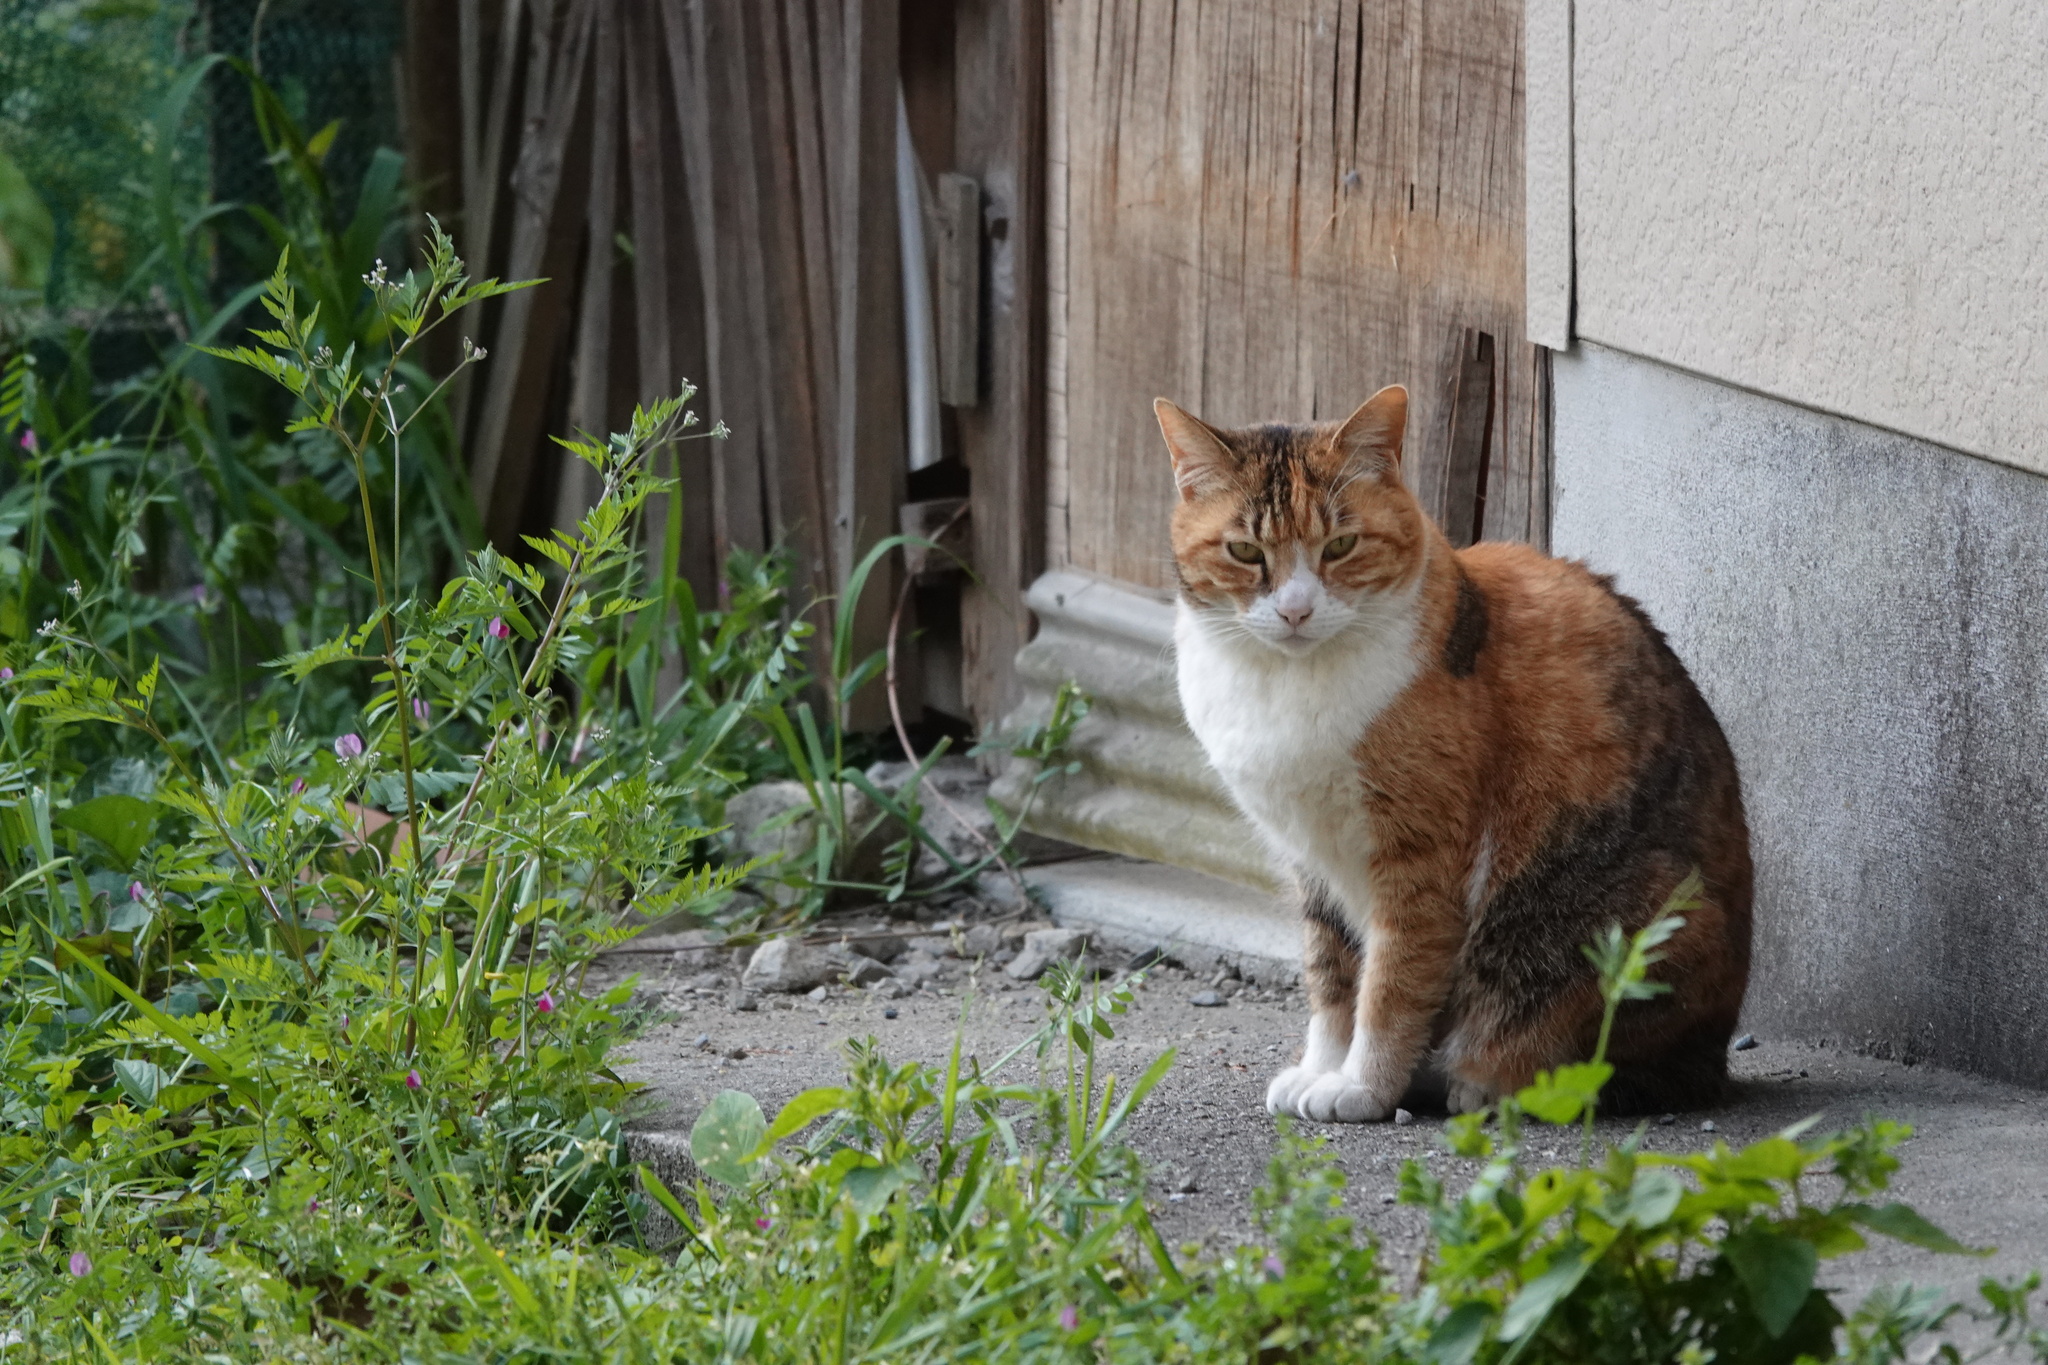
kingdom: Animalia
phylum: Chordata
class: Mammalia
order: Carnivora
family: Felidae
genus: Felis
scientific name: Felis catus
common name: Domestic cat
